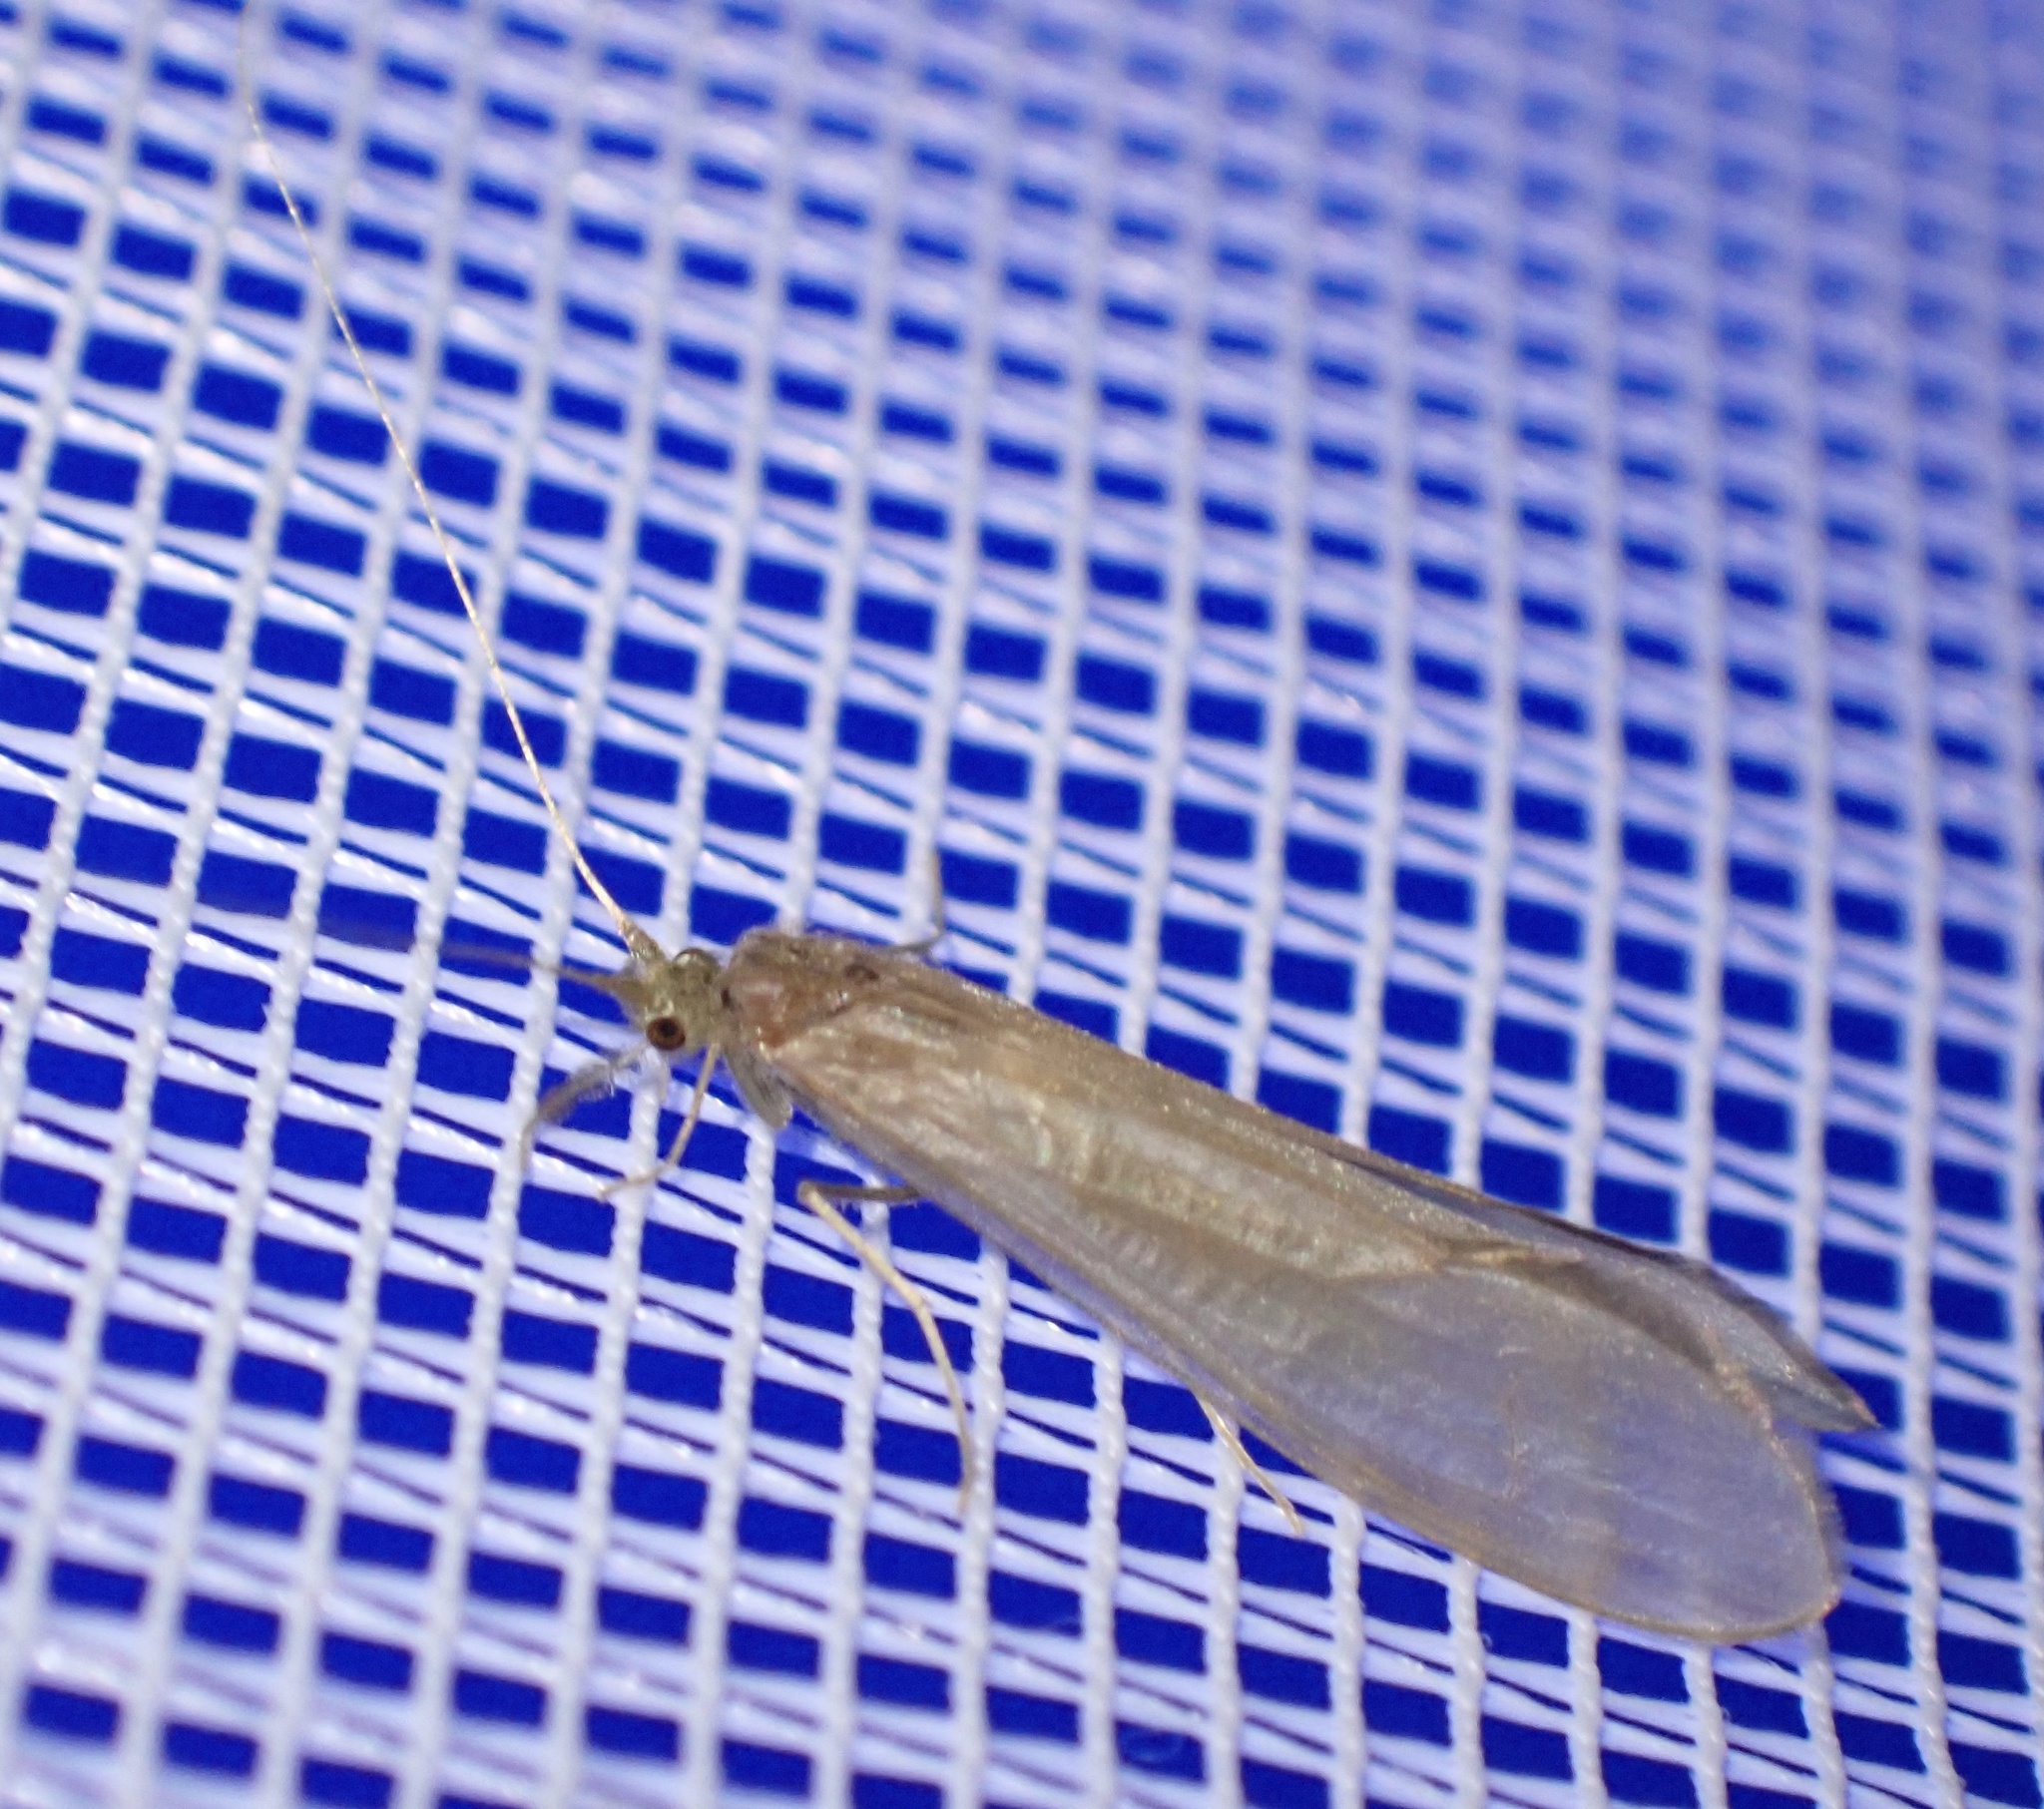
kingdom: Animalia
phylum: Arthropoda
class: Insecta
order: Trichoptera
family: Leptoceridae
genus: Oecetis
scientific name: Oecetis ochracea
